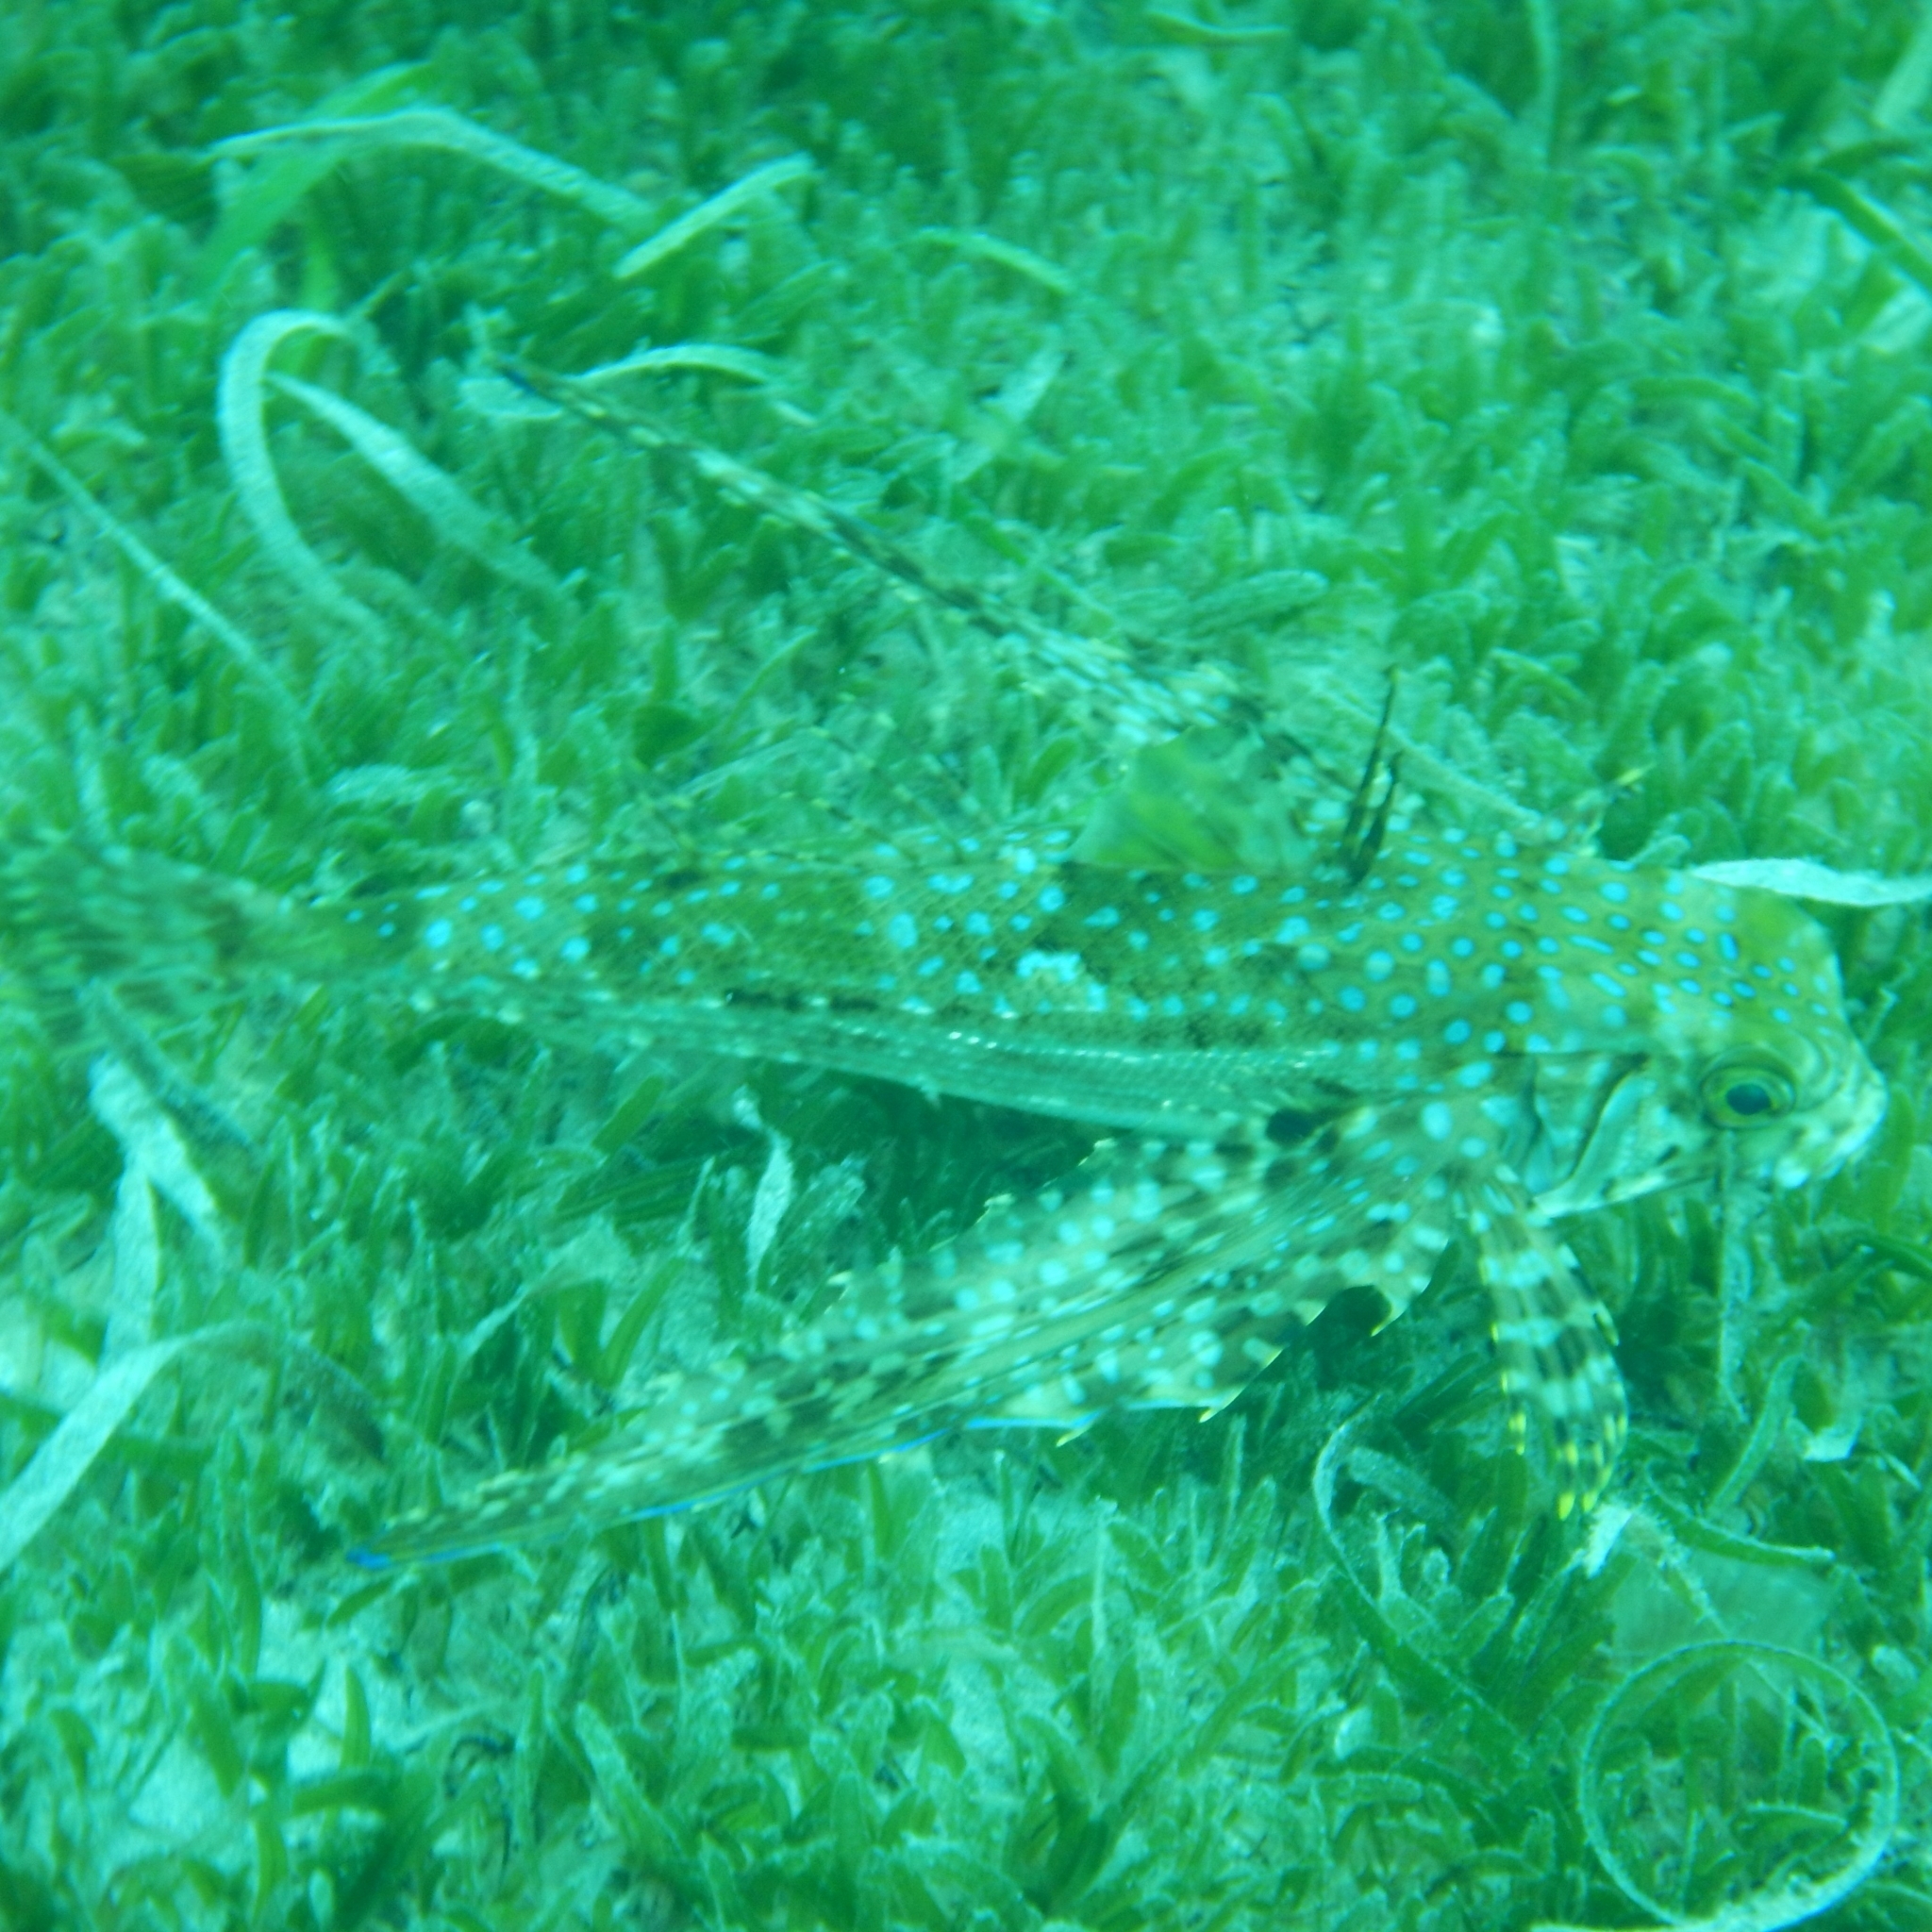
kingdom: Animalia
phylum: Chordata
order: Scorpaeniformes
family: Dactylopteridae
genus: Dactylopterus
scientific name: Dactylopterus volitans
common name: Flying gurnard
